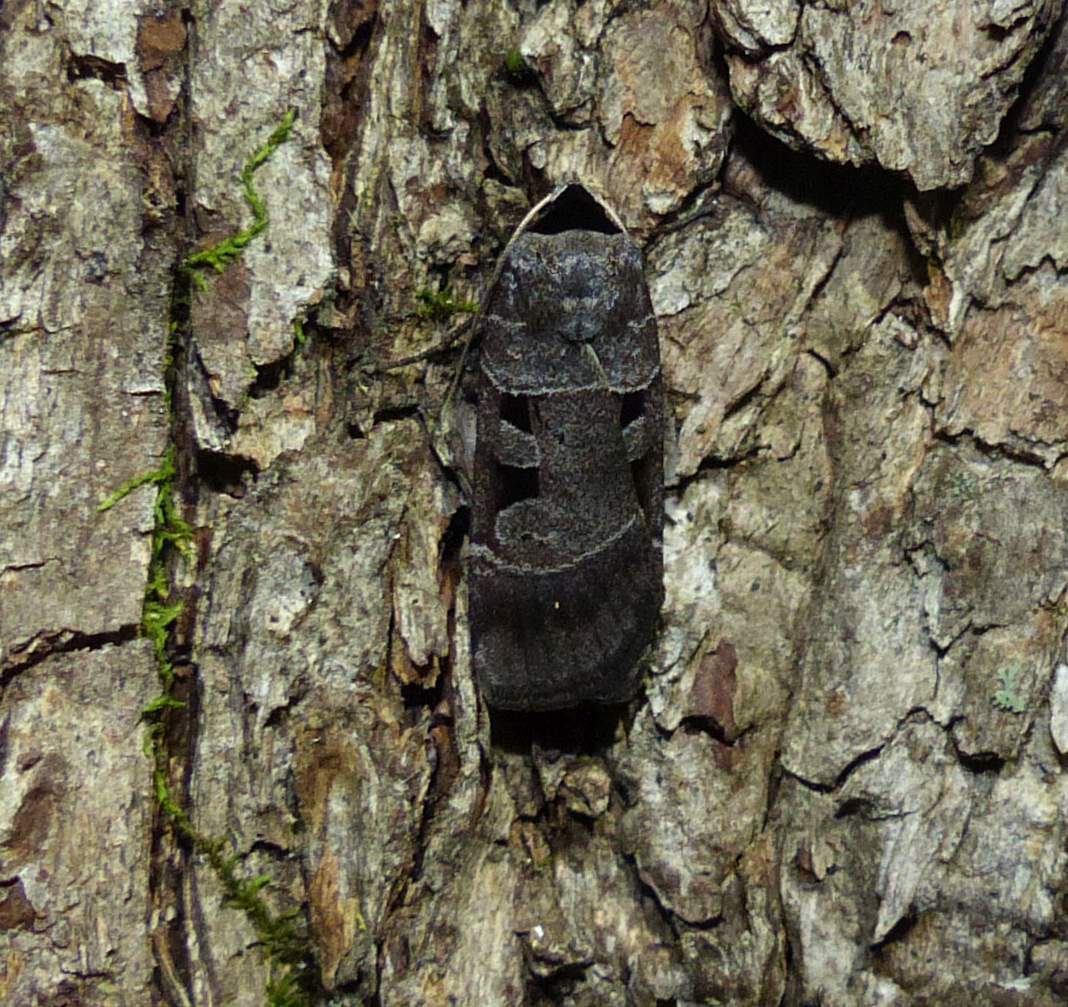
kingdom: Animalia
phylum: Arthropoda
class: Insecta
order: Lepidoptera
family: Noctuidae
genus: Agnorisma
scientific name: Agnorisma bugrai
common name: Collared dart
